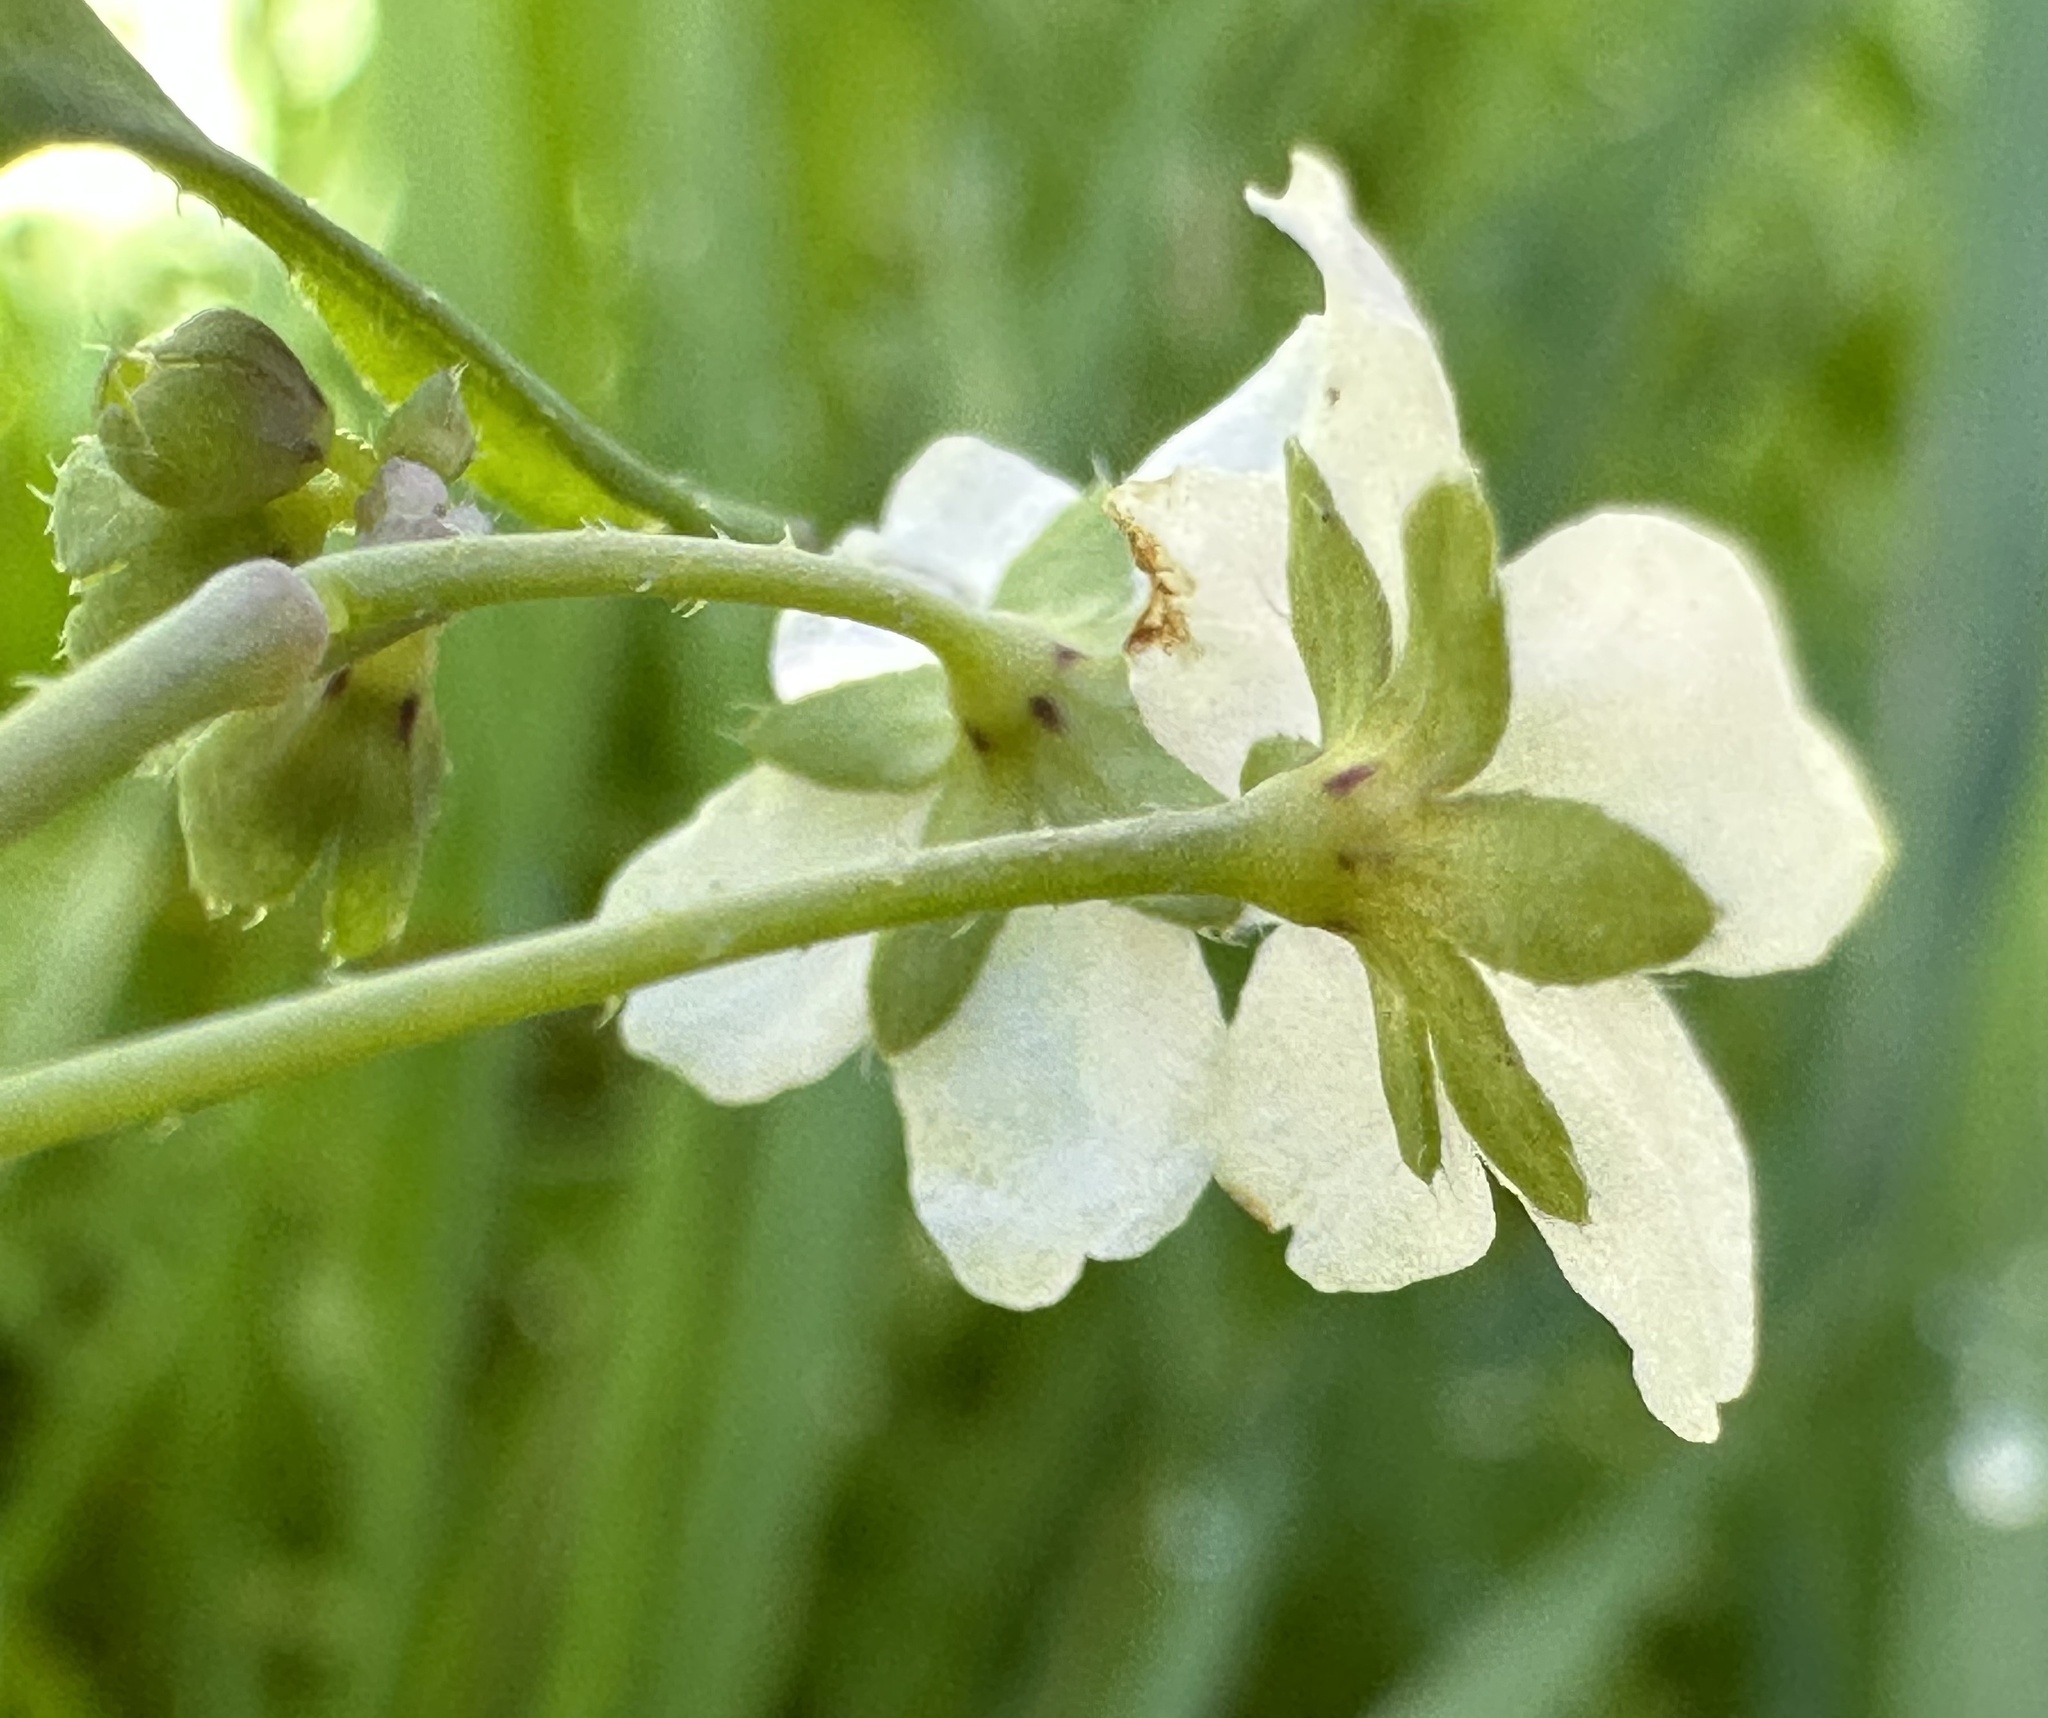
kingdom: Plantae
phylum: Tracheophyta
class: Magnoliopsida
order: Boraginales
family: Hydrophyllaceae
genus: Pholistoma
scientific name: Pholistoma membranaceum
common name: White fiesta-flower
